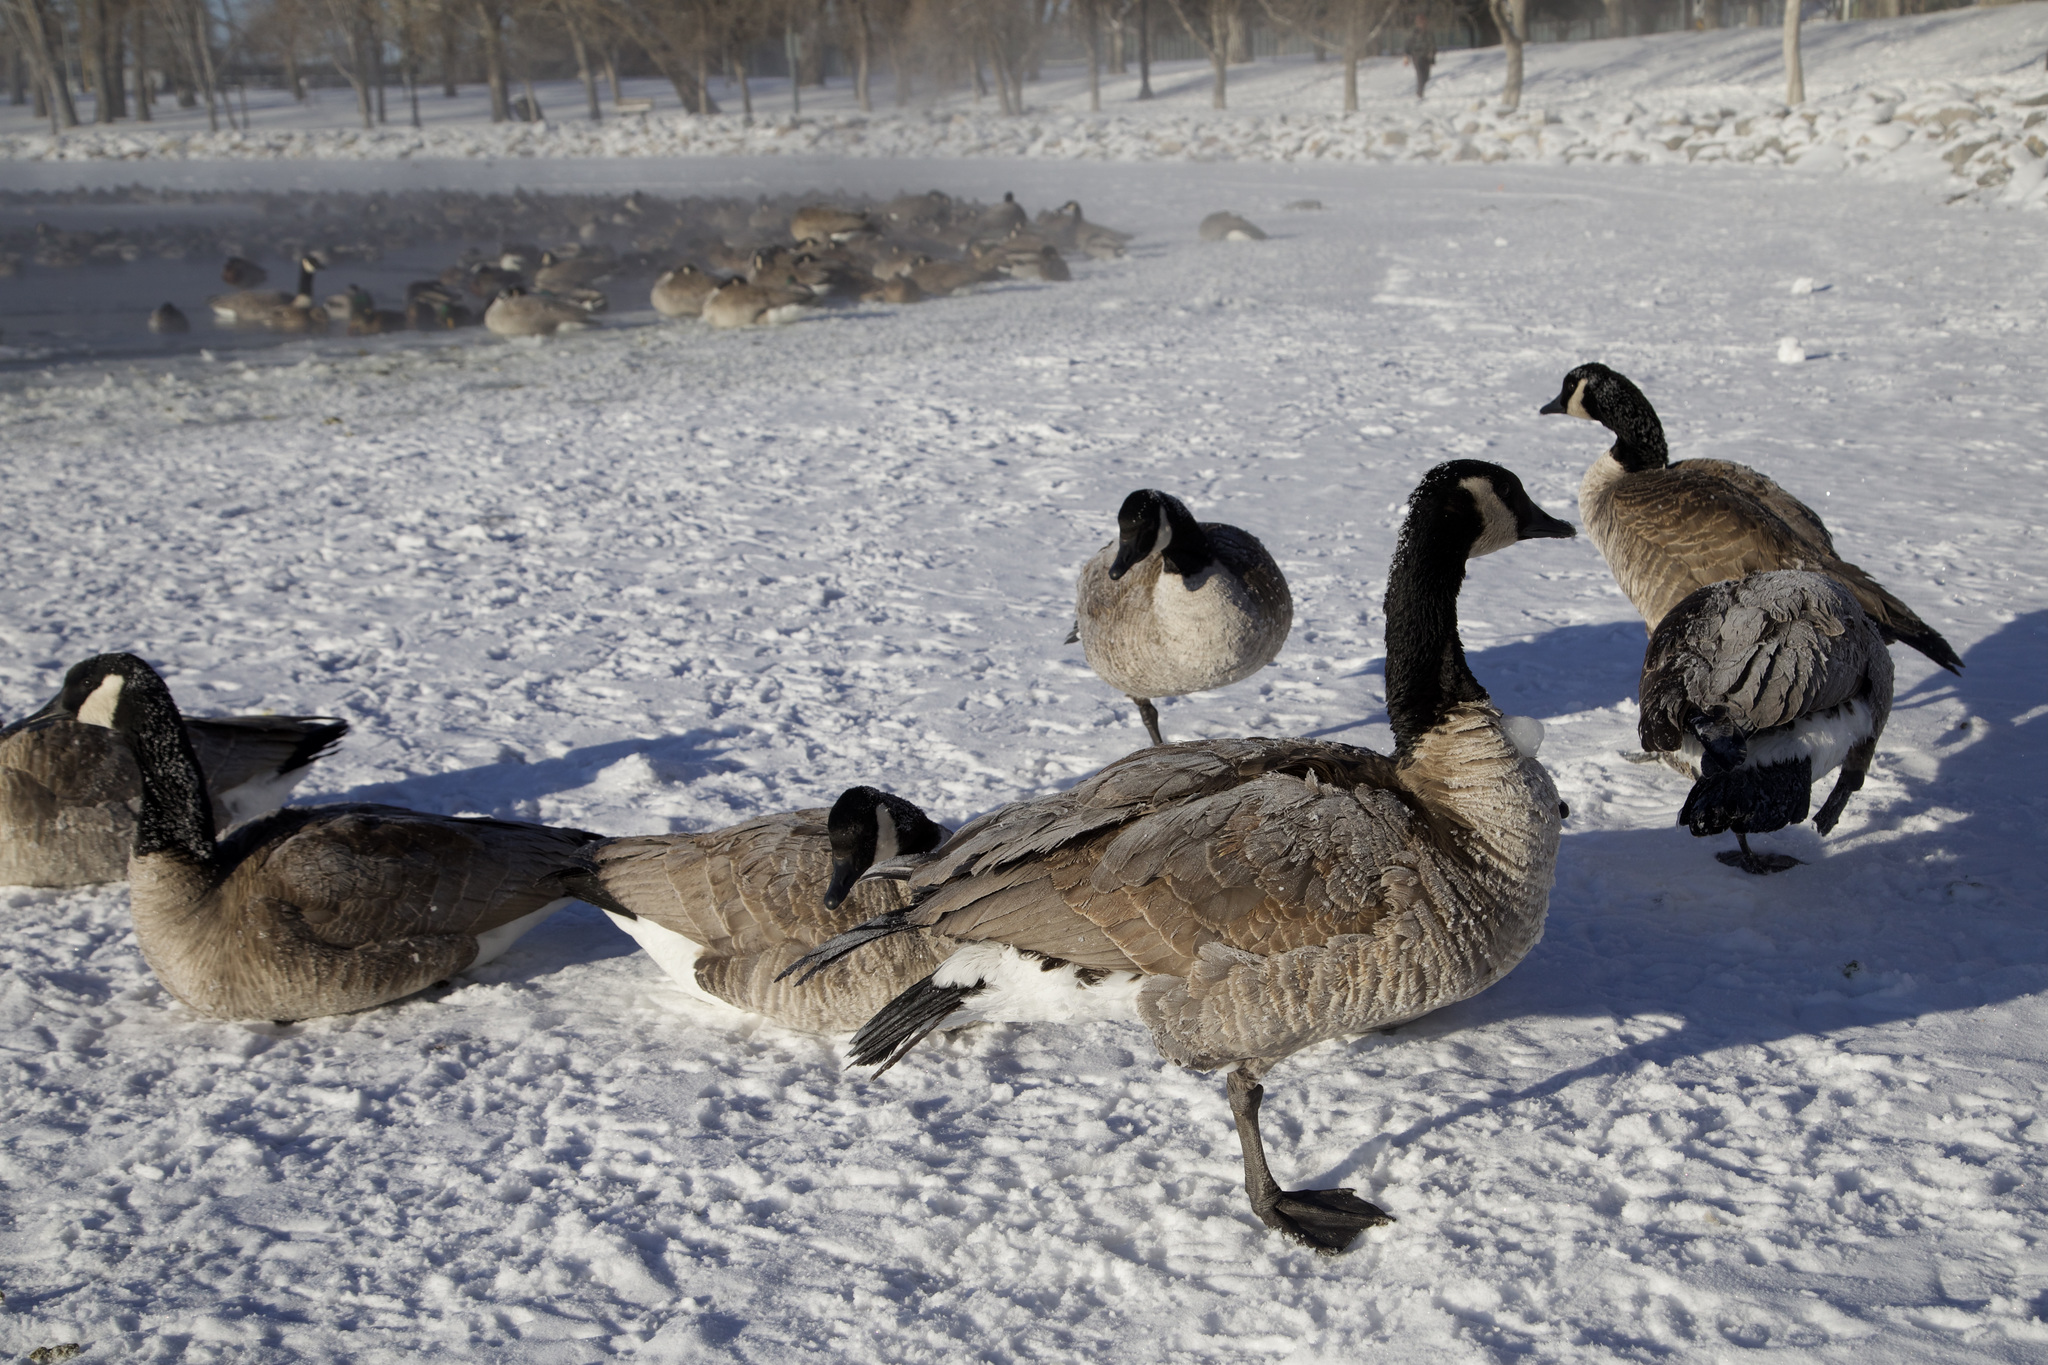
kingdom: Animalia
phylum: Chordata
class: Aves
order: Anseriformes
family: Anatidae
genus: Branta
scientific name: Branta canadensis
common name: Canada goose
